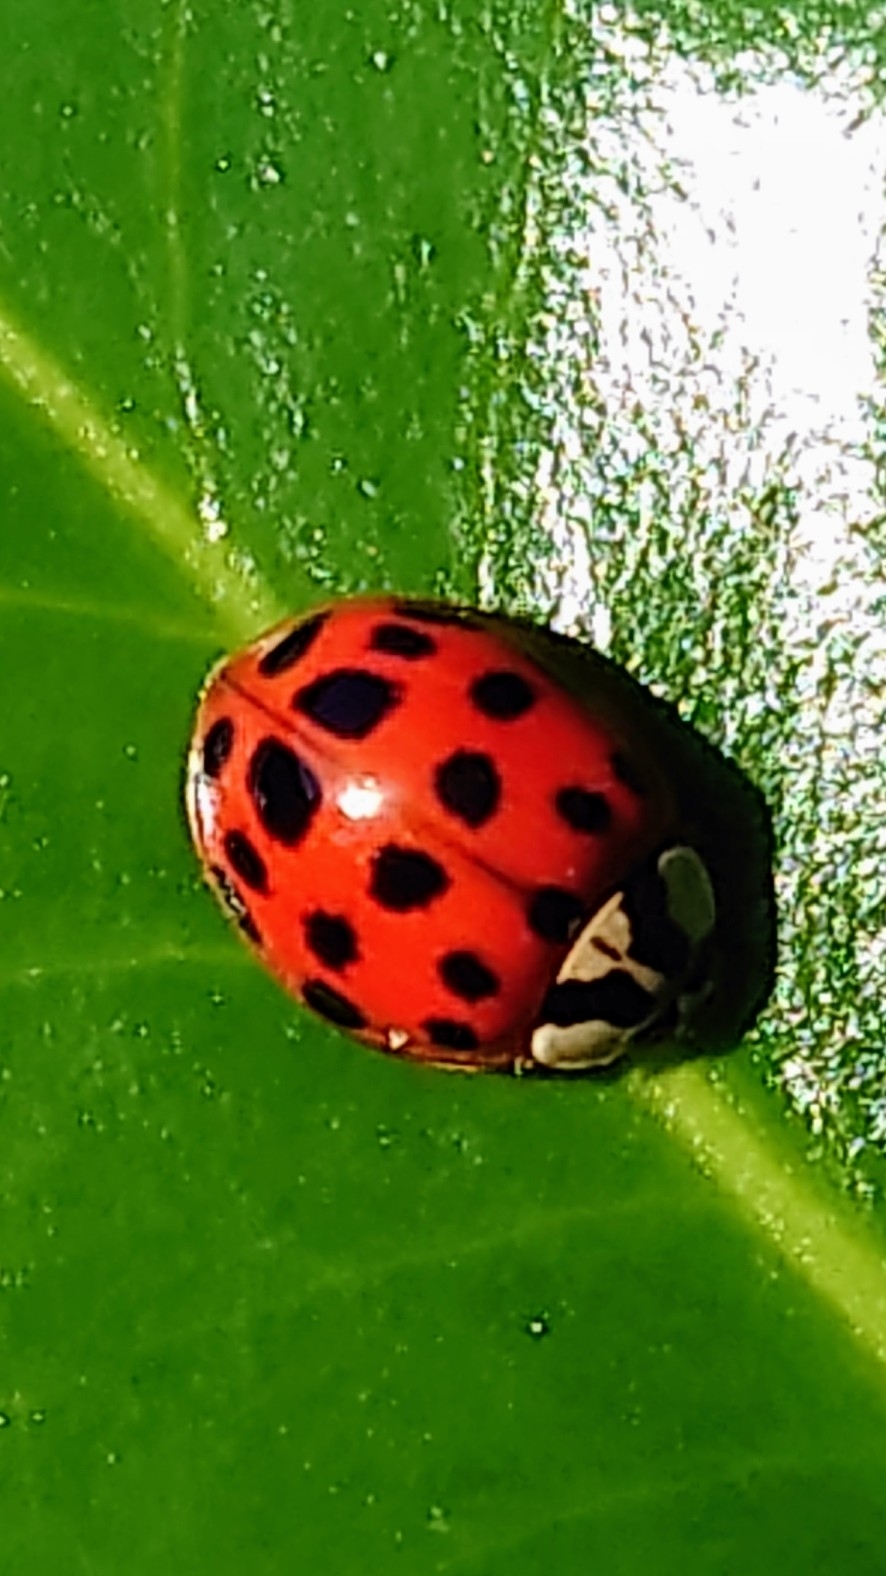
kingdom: Animalia
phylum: Arthropoda
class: Insecta
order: Coleoptera
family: Coccinellidae
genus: Harmonia
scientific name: Harmonia axyridis
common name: Harlequin ladybird
